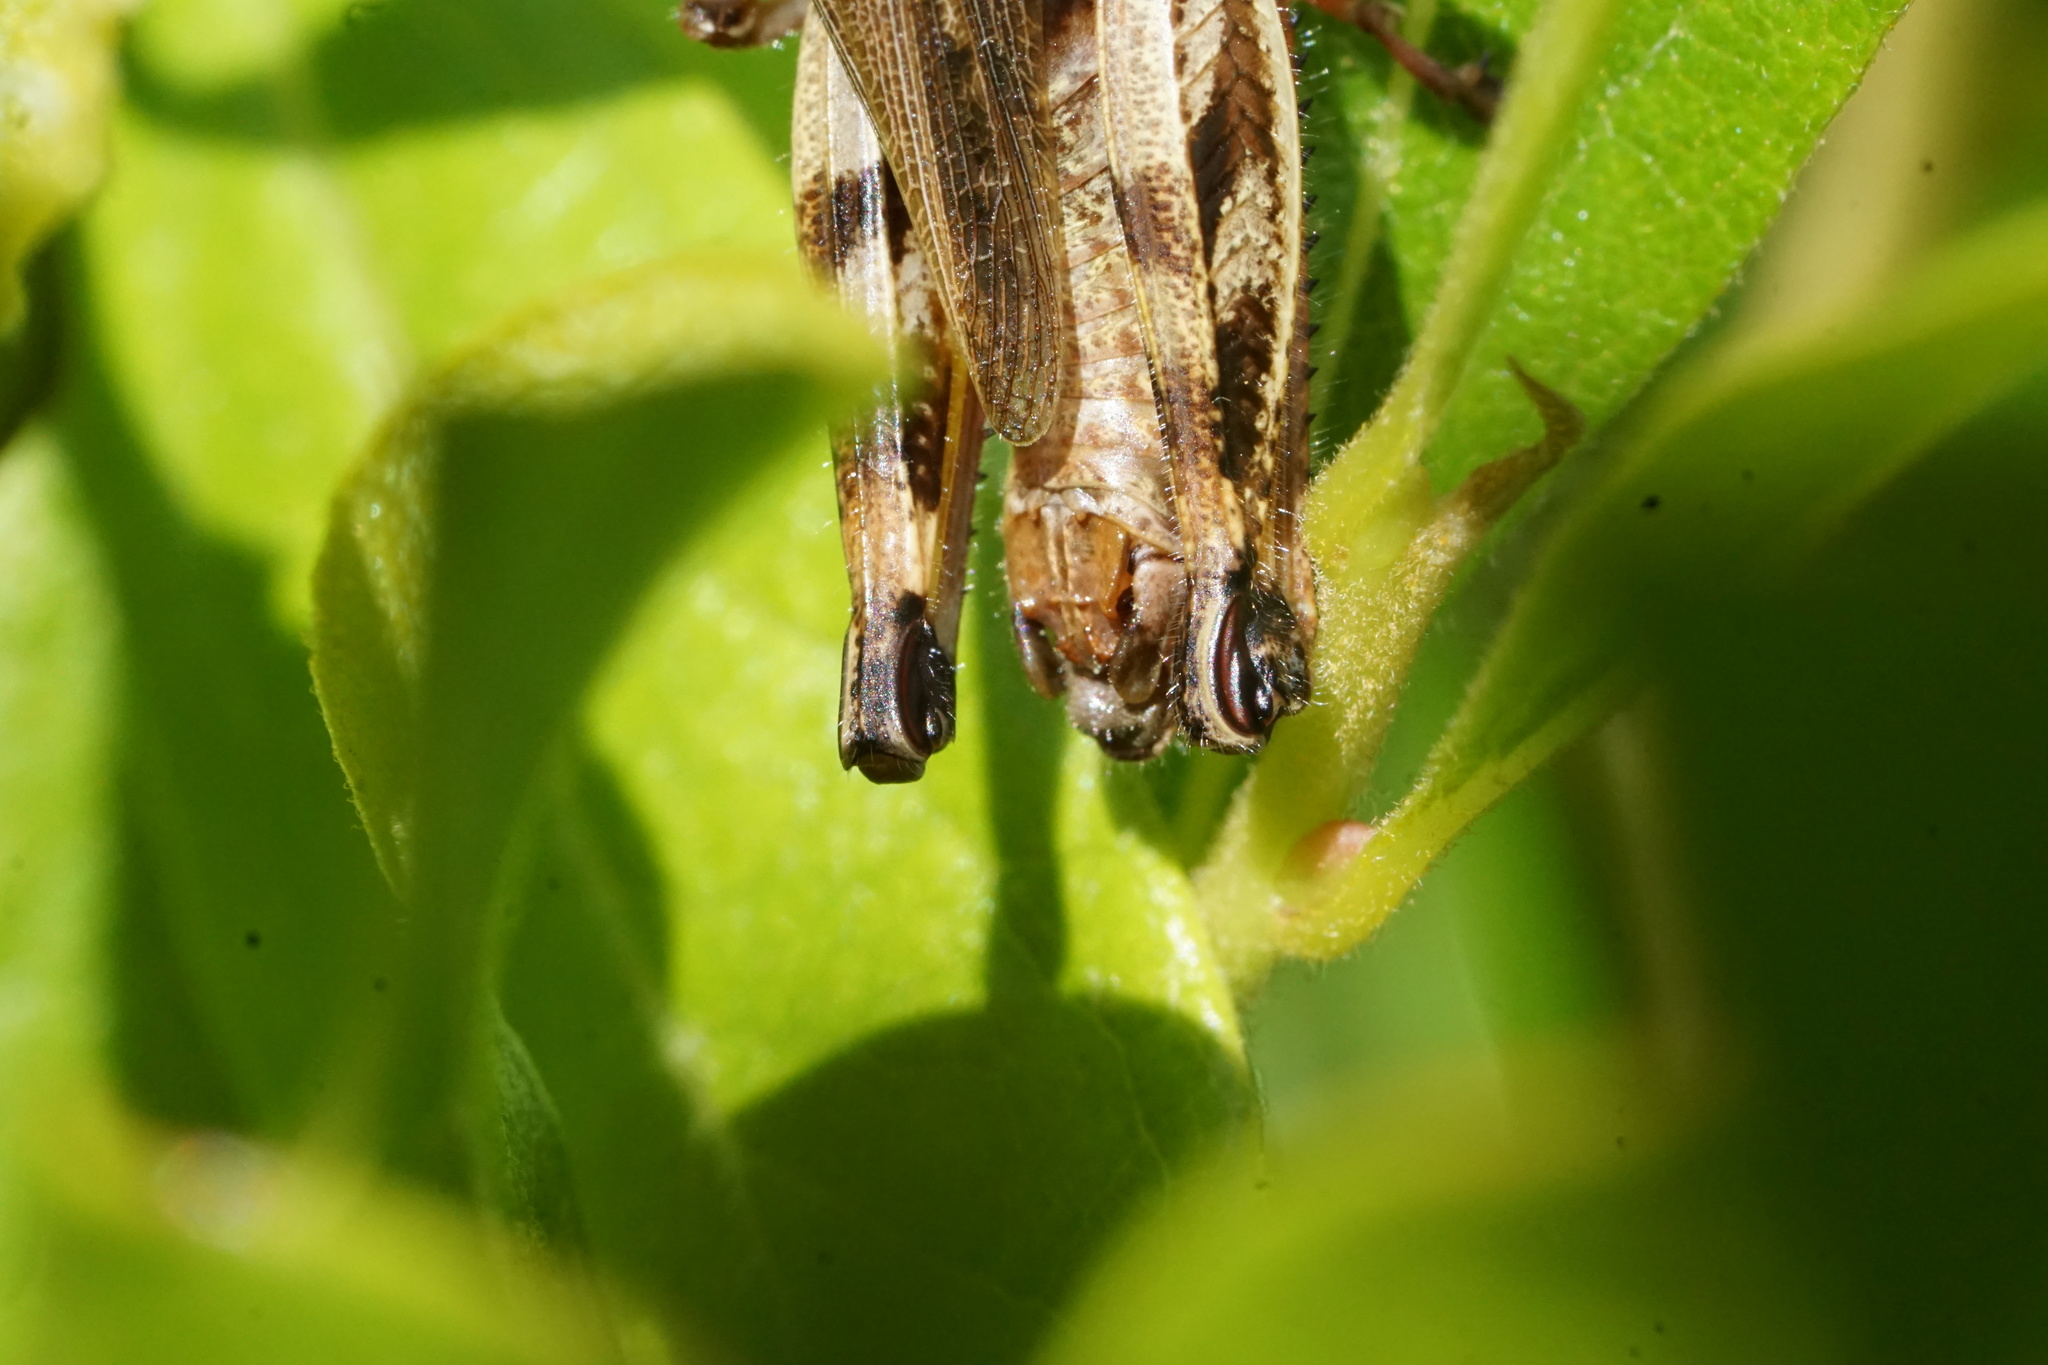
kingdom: Animalia
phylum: Arthropoda
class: Insecta
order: Orthoptera
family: Acrididae
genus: Melanoplus
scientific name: Melanoplus fasciatus
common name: Huckleberry locust
